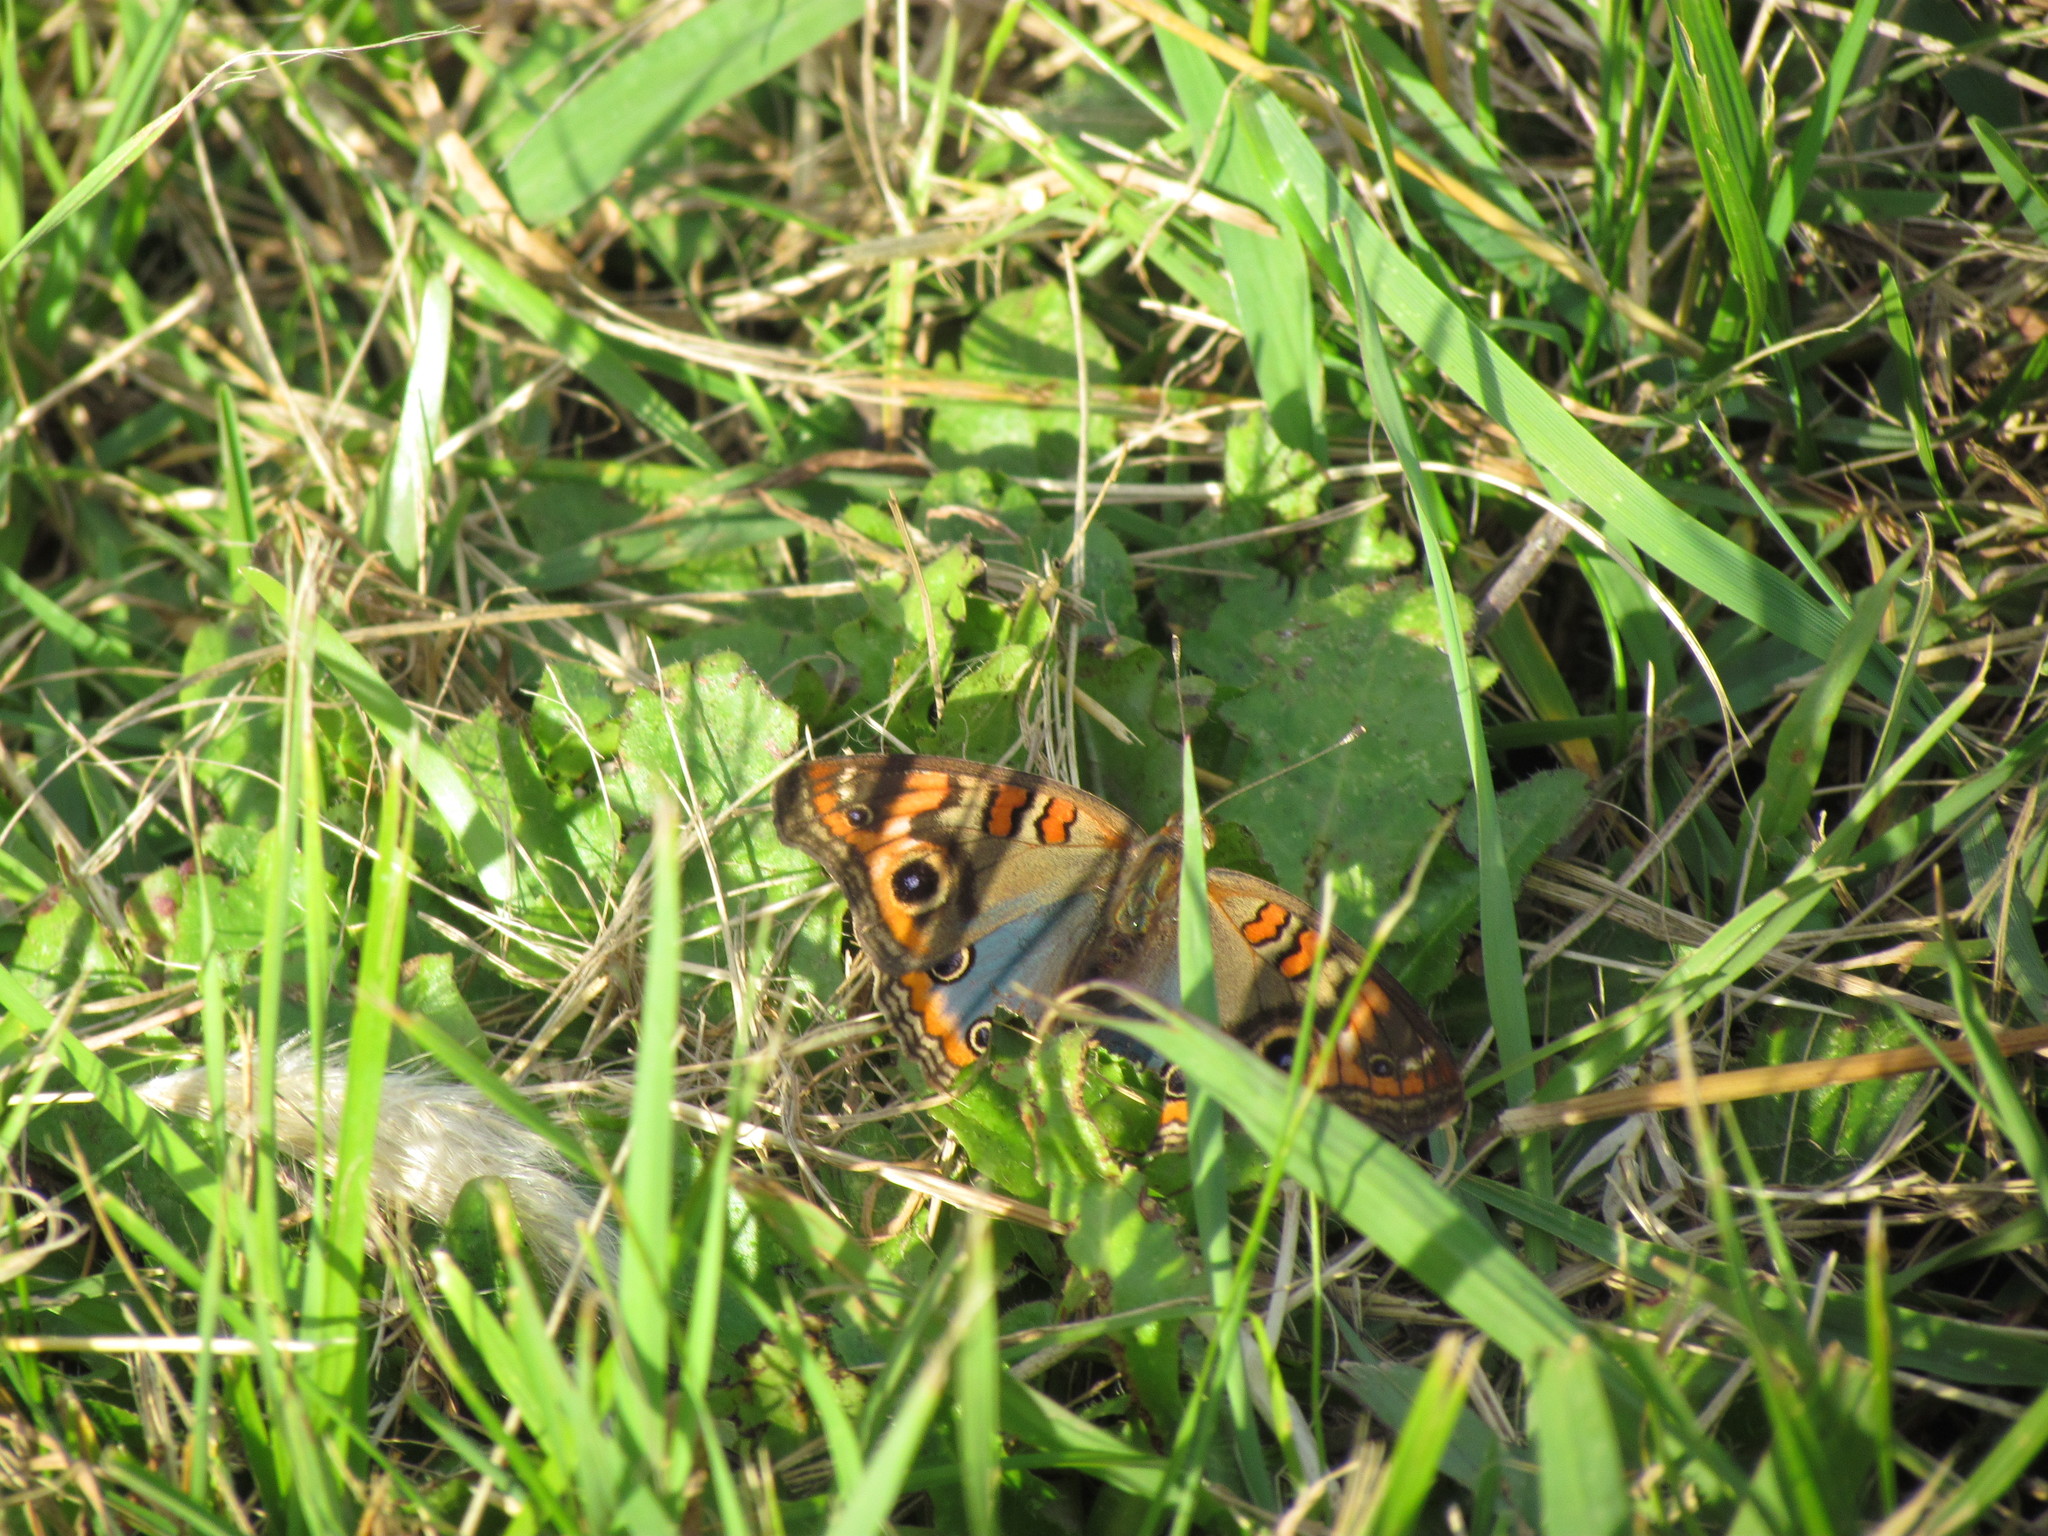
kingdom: Animalia
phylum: Arthropoda
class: Insecta
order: Lepidoptera
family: Nymphalidae
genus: Junonia
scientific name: Junonia lavinia
